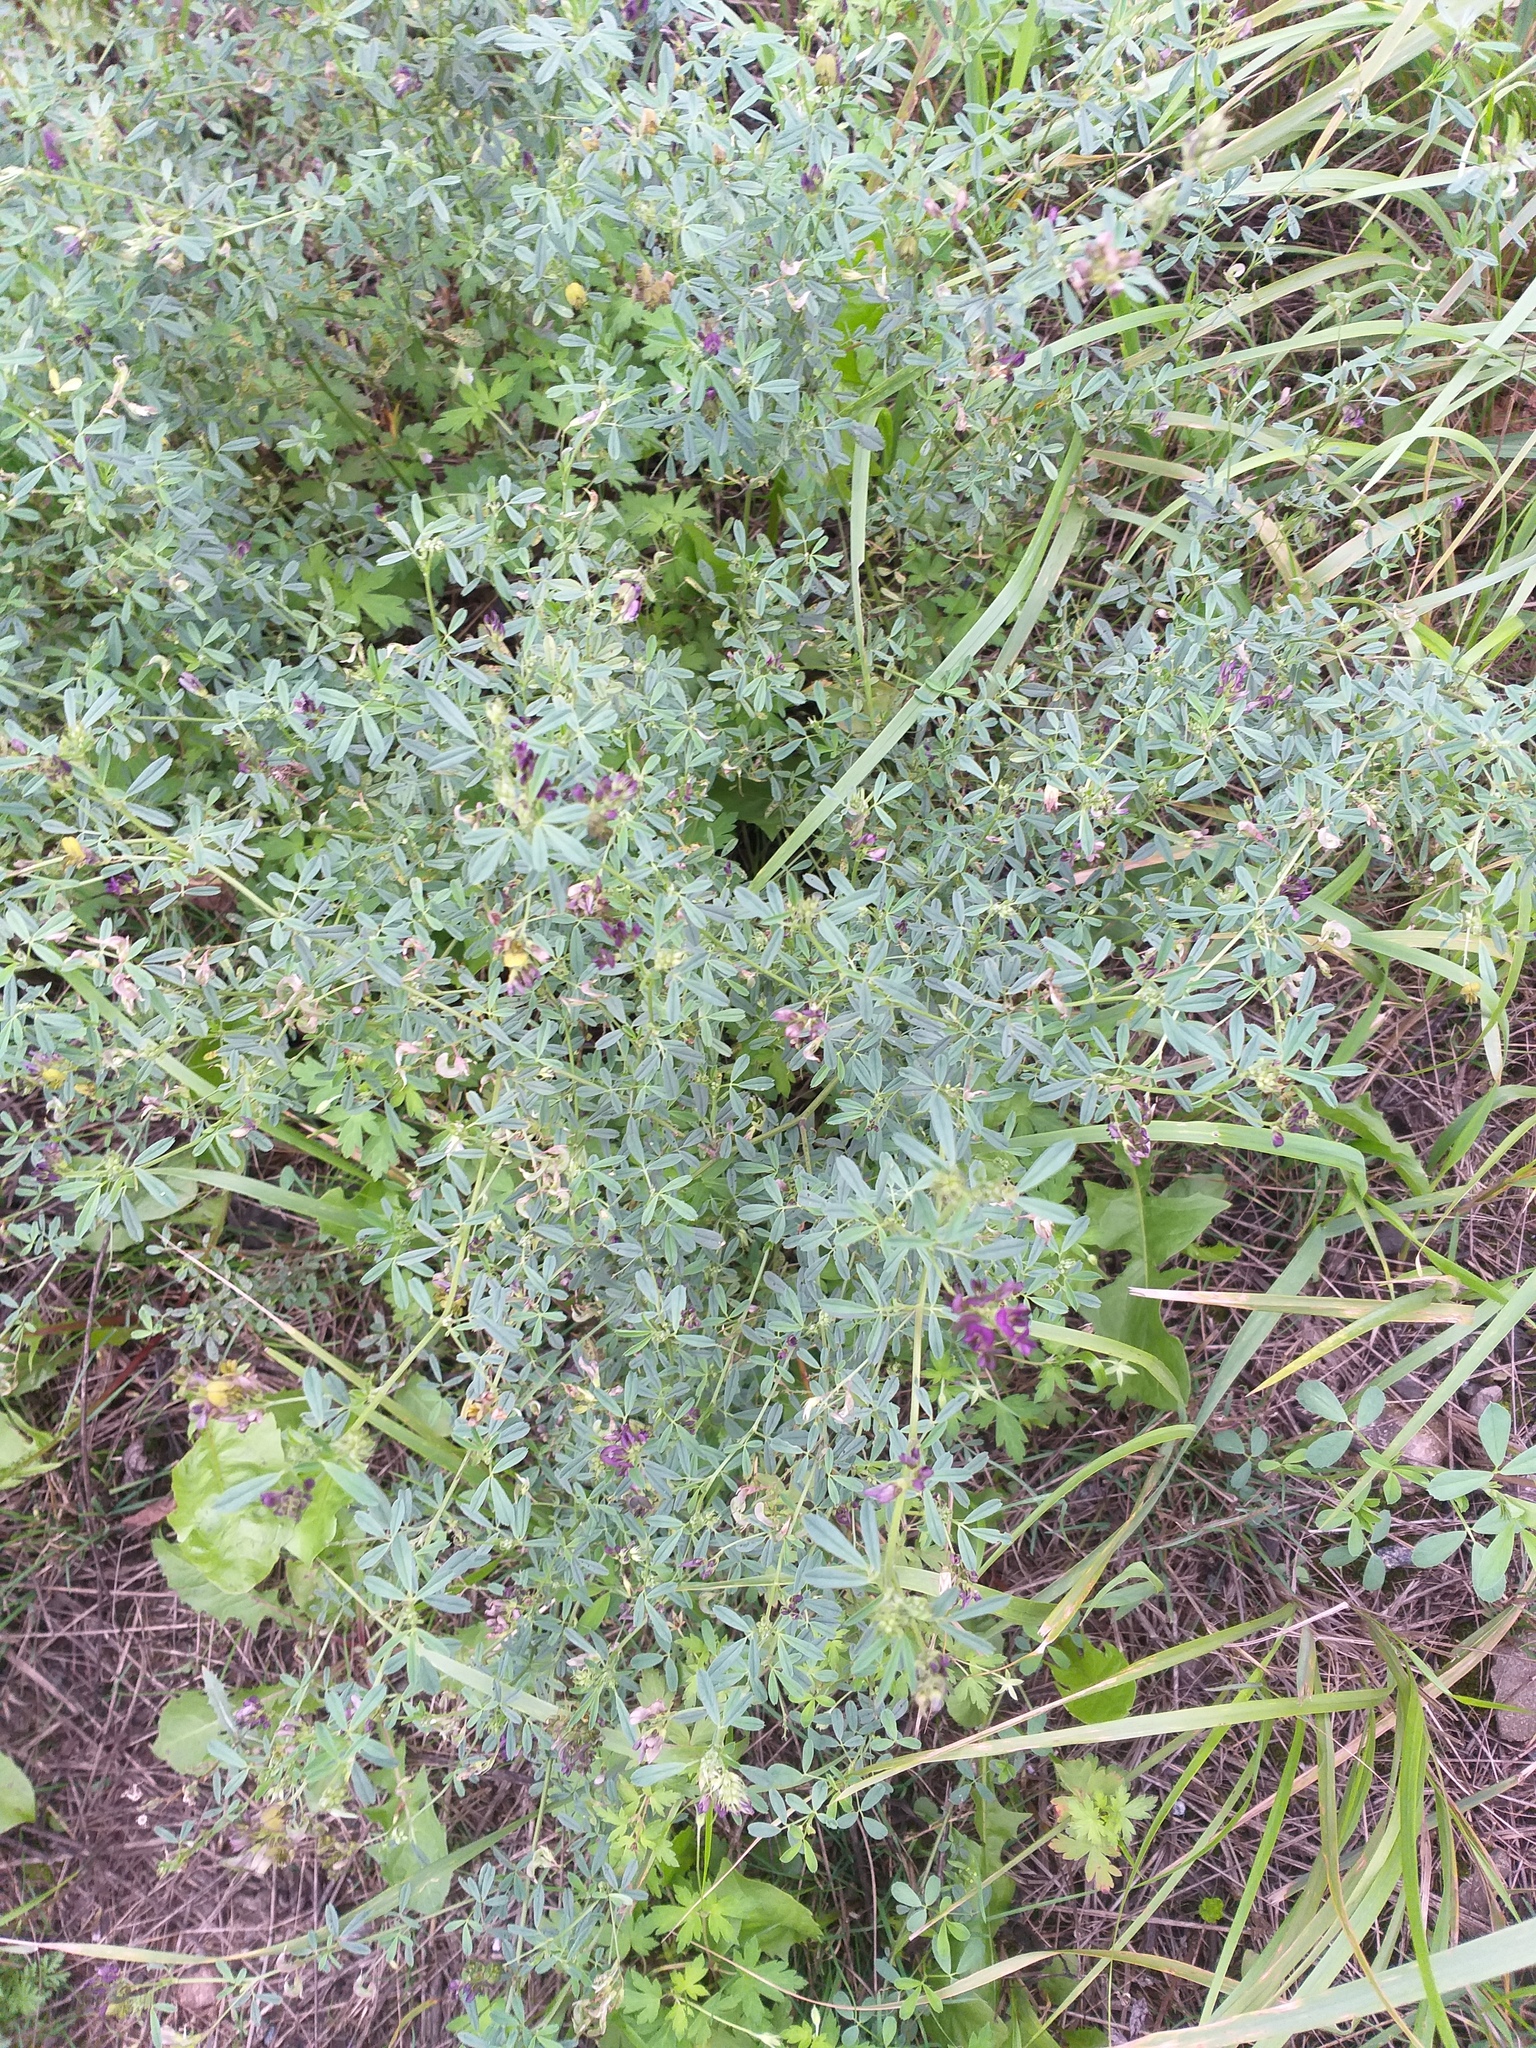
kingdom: Plantae
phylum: Tracheophyta
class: Magnoliopsida
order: Fabales
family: Fabaceae
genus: Medicago
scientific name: Medicago varia
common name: Sand lucerne
